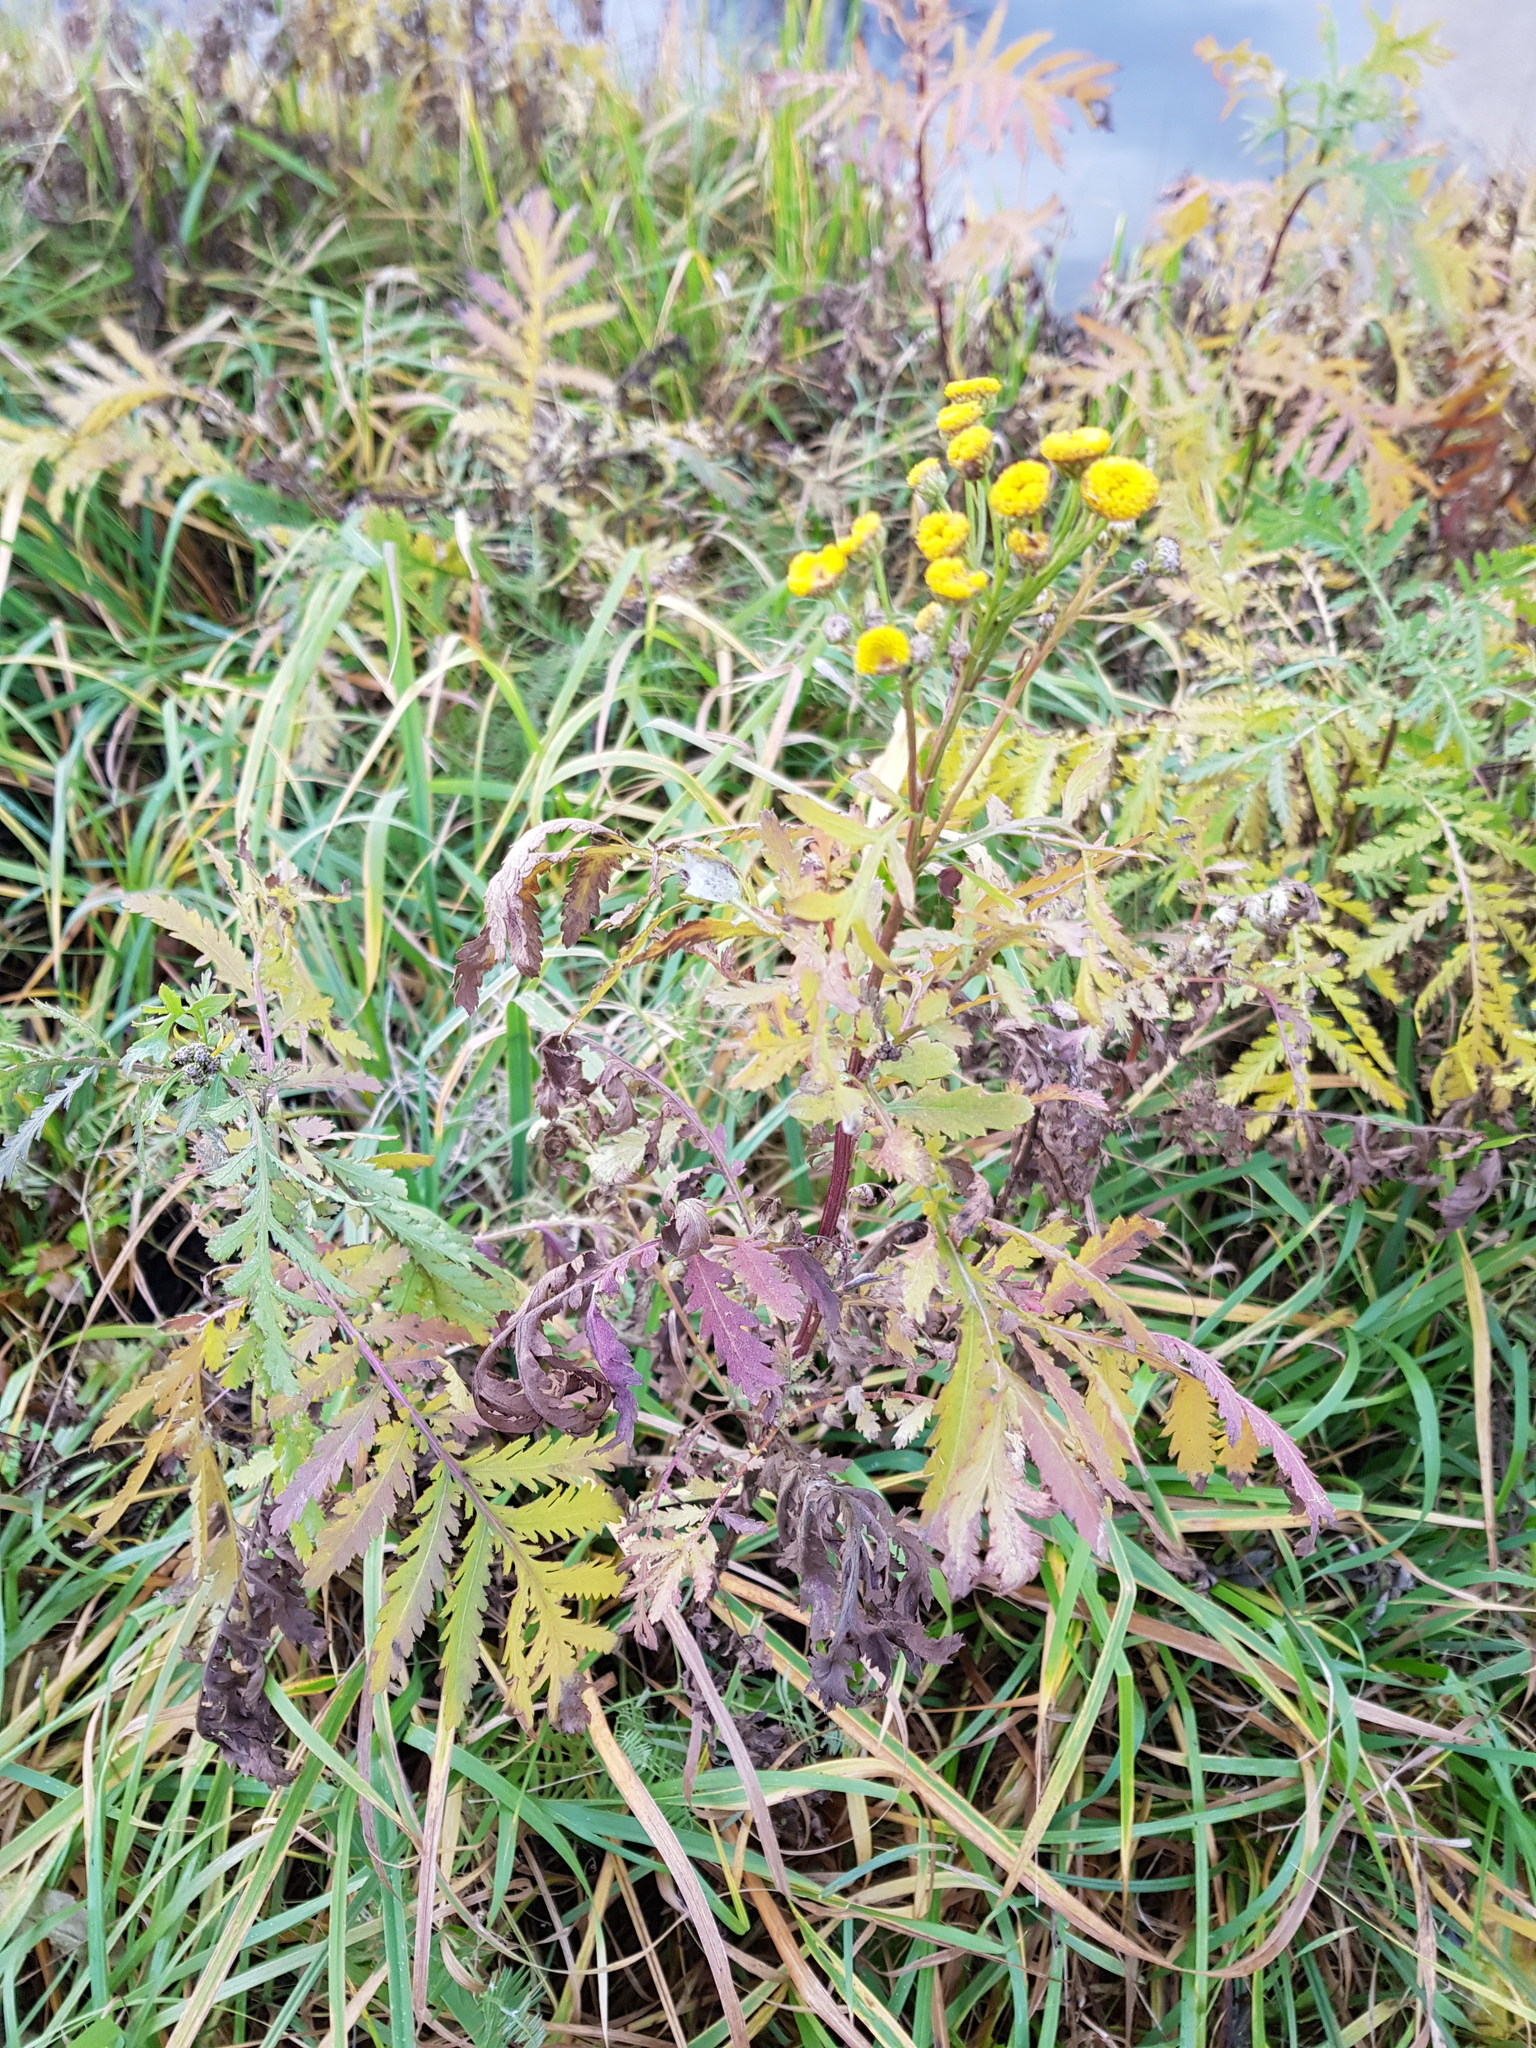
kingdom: Plantae
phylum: Tracheophyta
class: Magnoliopsida
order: Asterales
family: Asteraceae
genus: Tanacetum
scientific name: Tanacetum vulgare
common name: Common tansy
